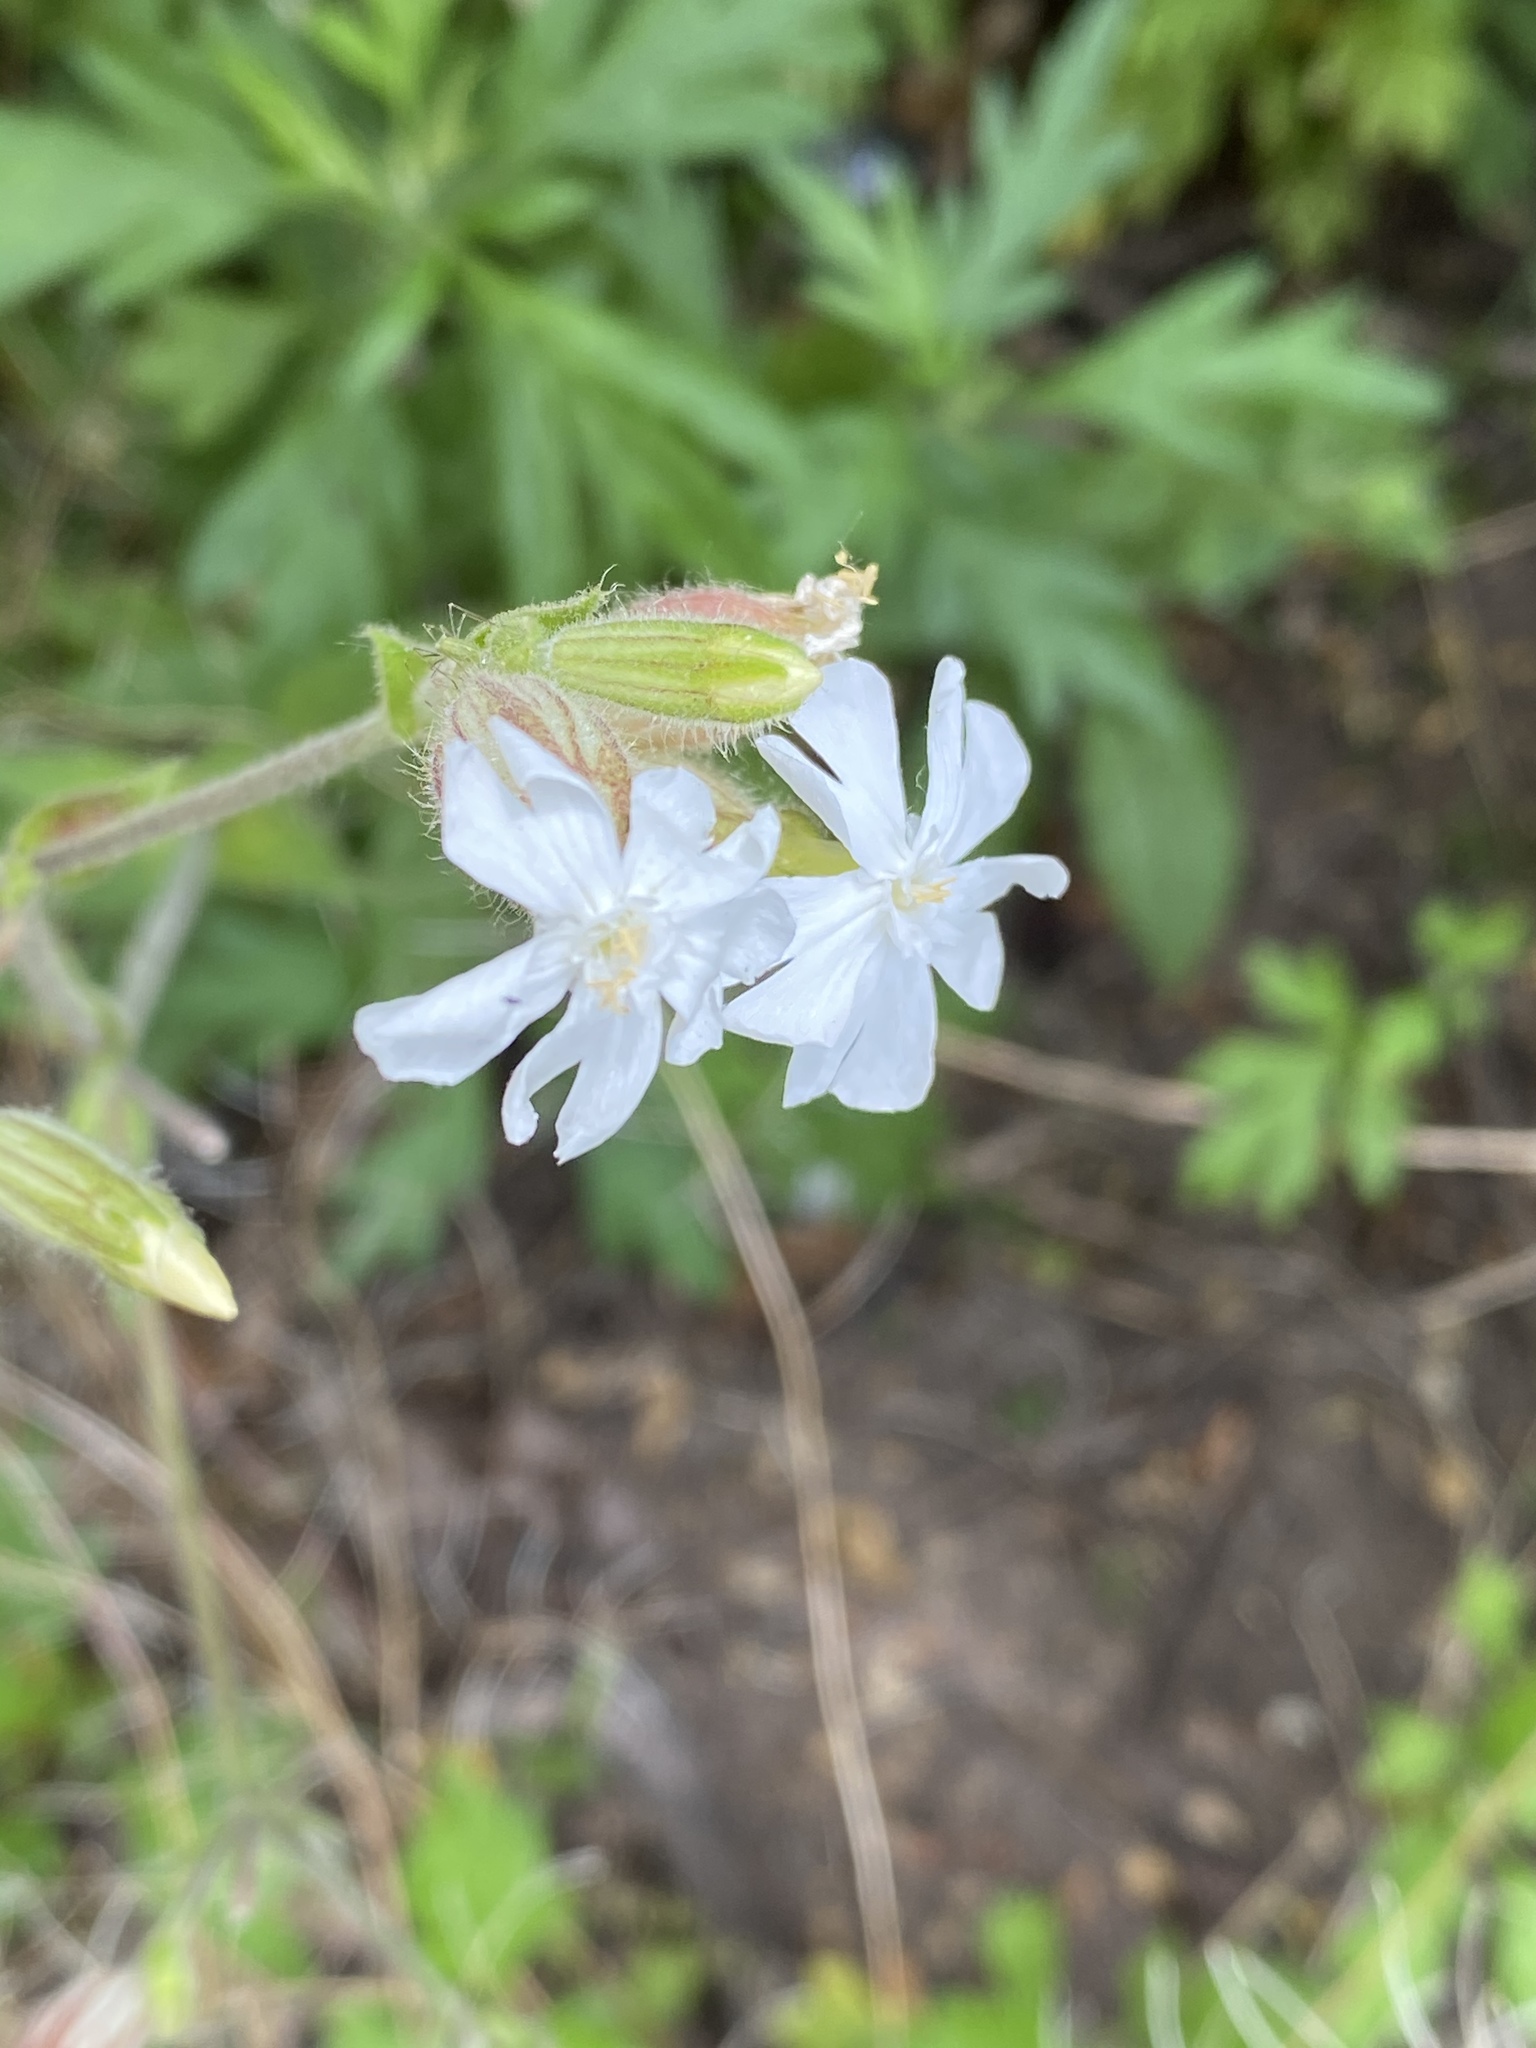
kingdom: Plantae
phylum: Tracheophyta
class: Magnoliopsida
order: Caryophyllales
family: Caryophyllaceae
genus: Silene
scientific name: Silene latifolia
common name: White campion
